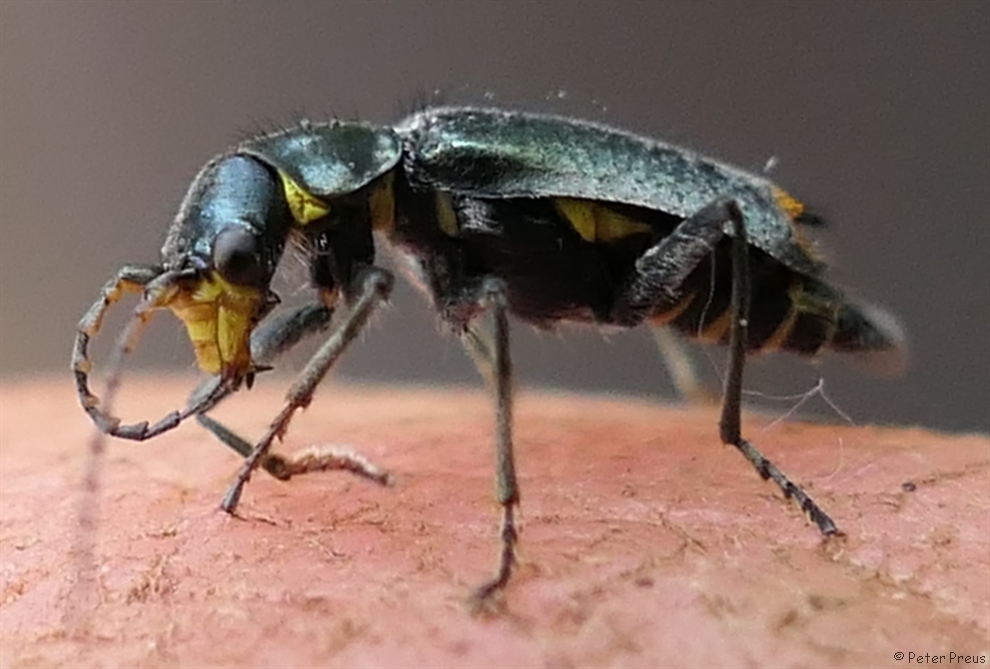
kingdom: Animalia
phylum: Arthropoda
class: Insecta
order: Coleoptera
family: Malachiidae
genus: Clanoptilus
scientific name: Clanoptilus marginellus
